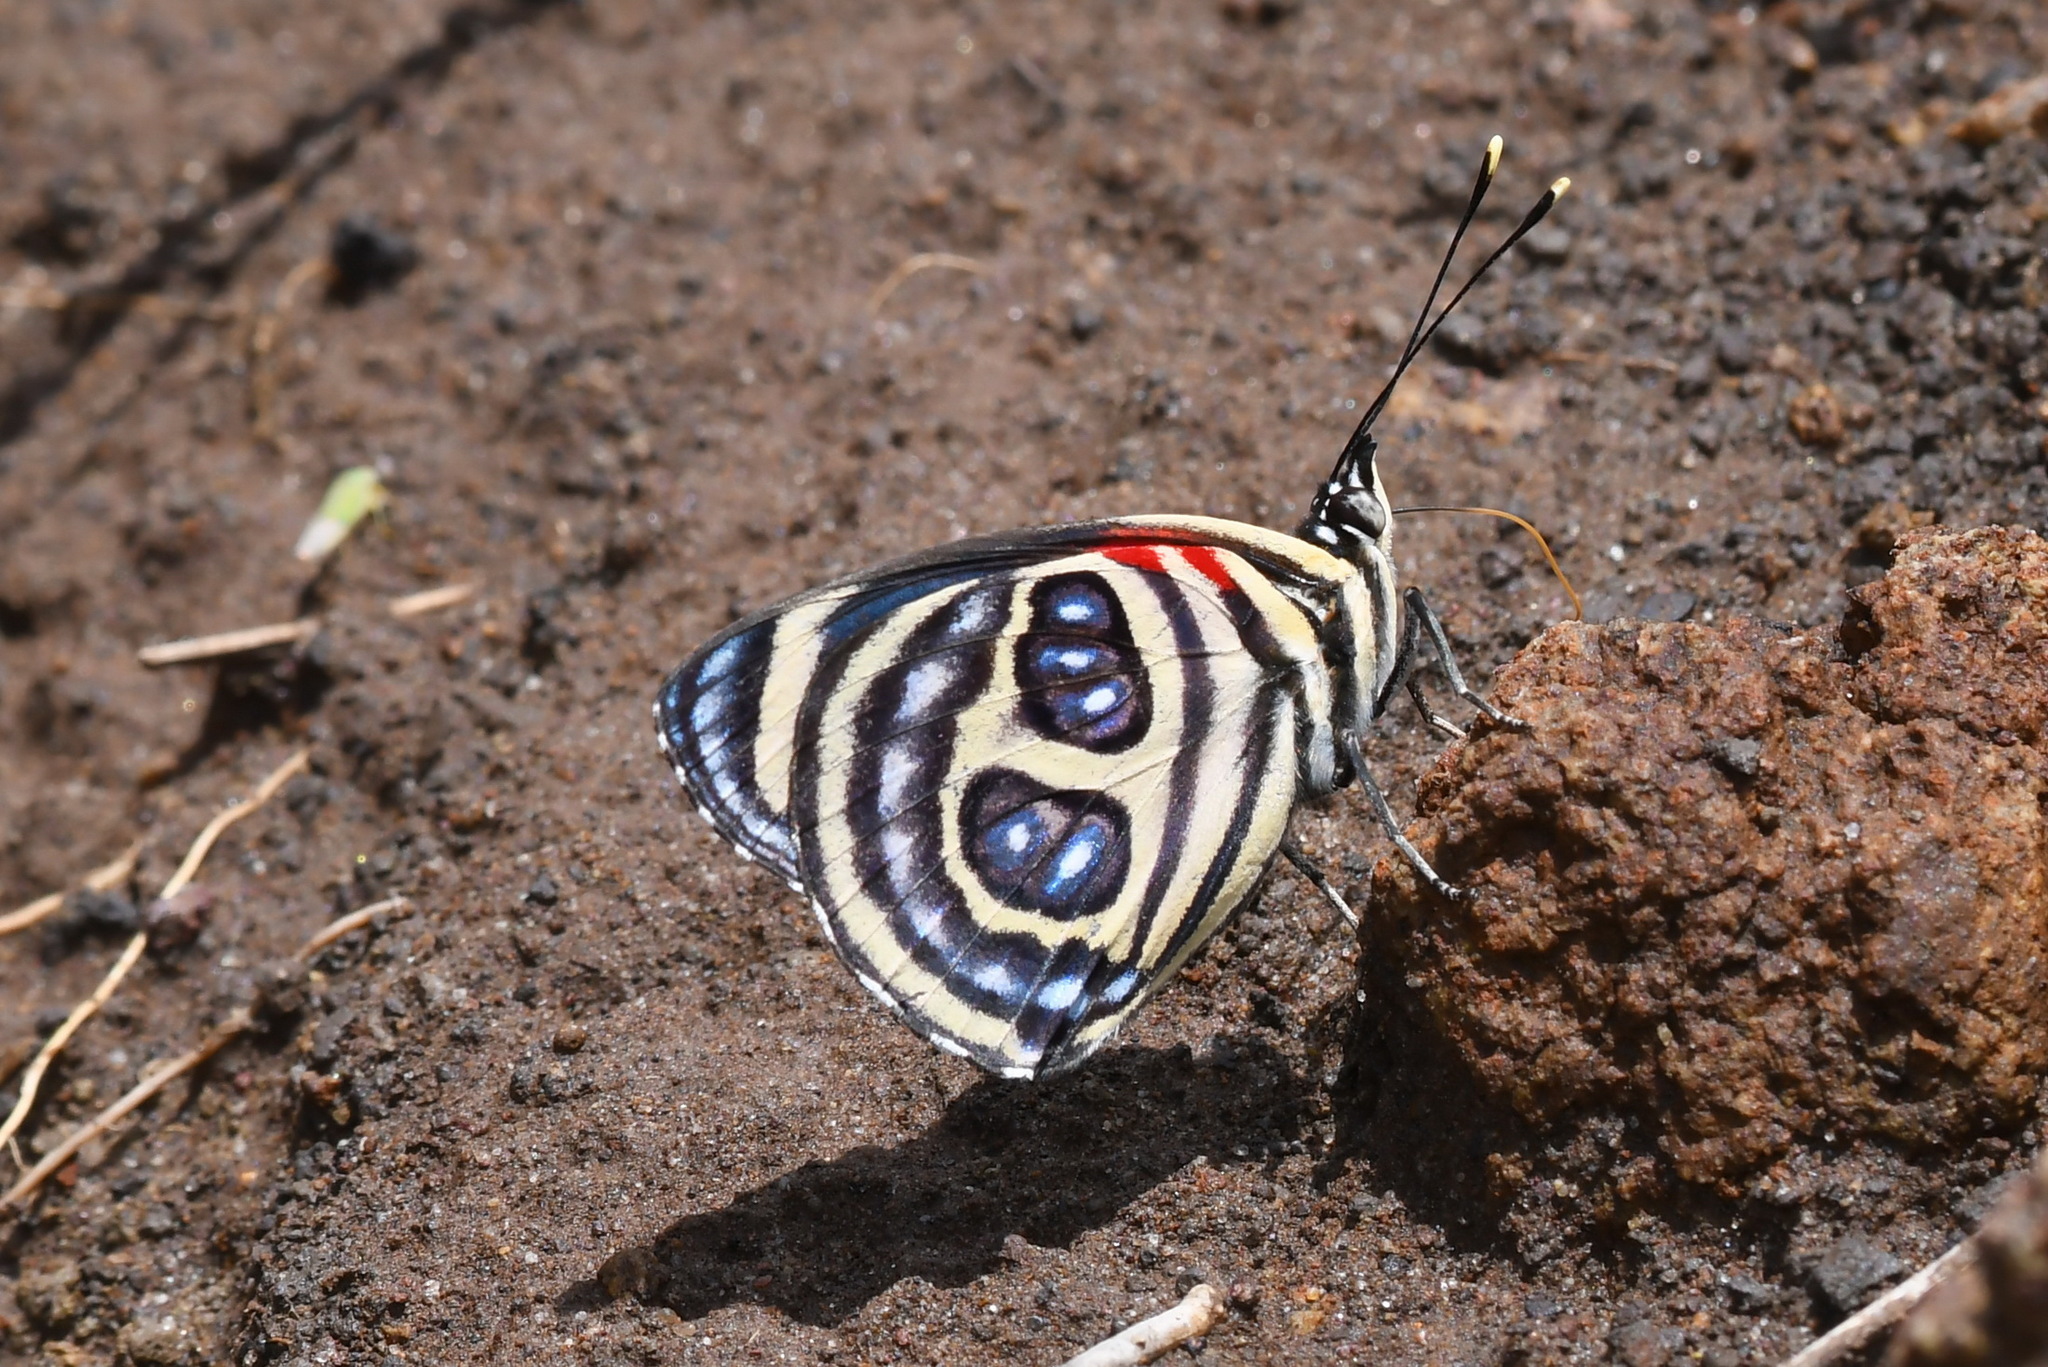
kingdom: Animalia
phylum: Arthropoda
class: Insecta
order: Lepidoptera
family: Nymphalidae
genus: Catagramma
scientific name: Catagramma pygas
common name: Godart's numberwing
